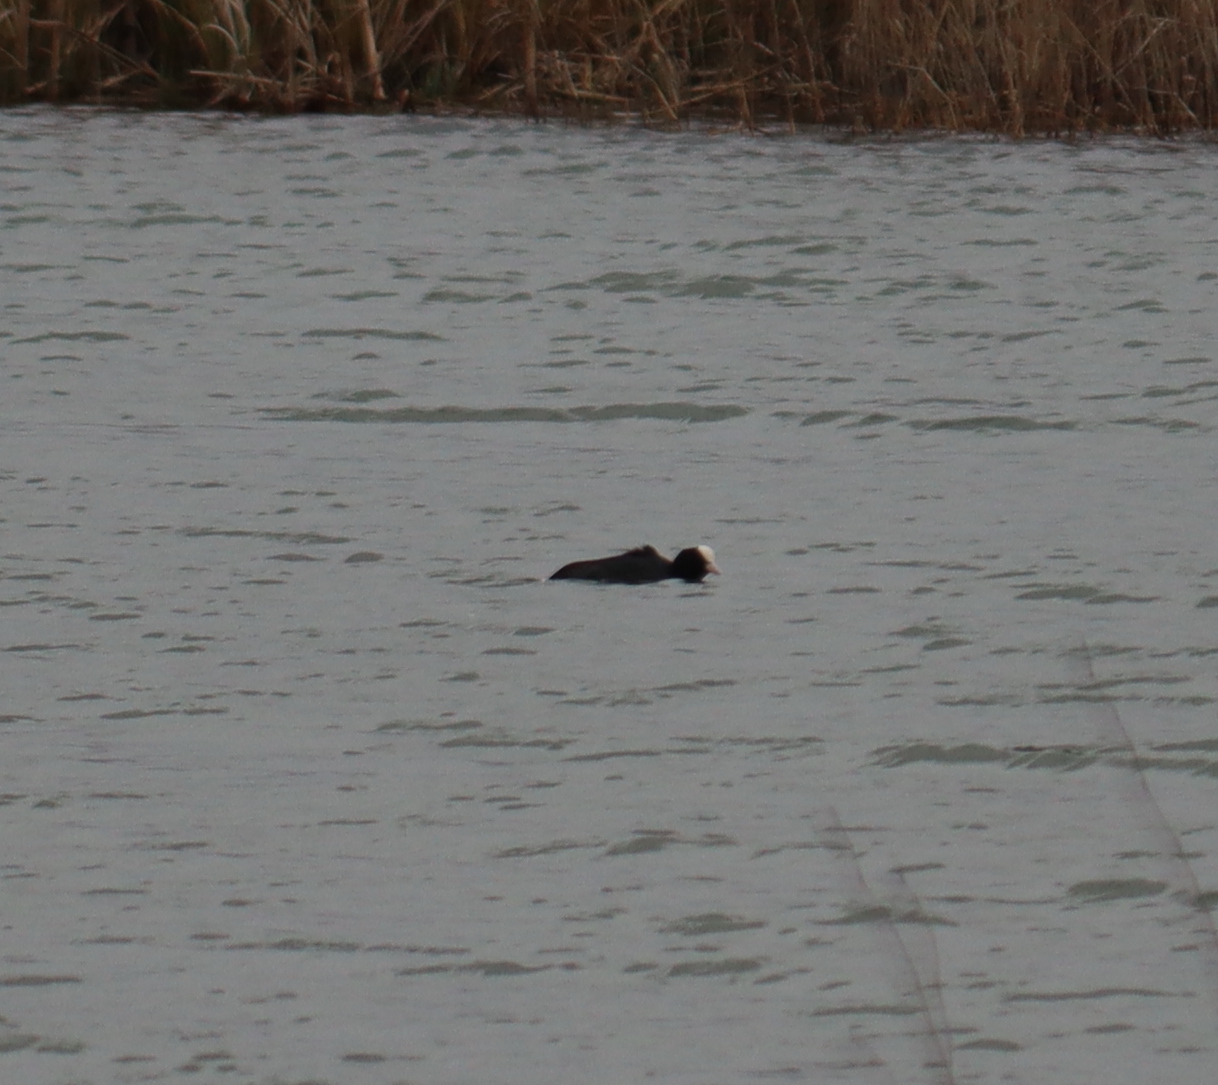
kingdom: Animalia
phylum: Chordata
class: Aves
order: Gruiformes
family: Rallidae
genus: Fulica
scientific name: Fulica atra
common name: Eurasian coot
